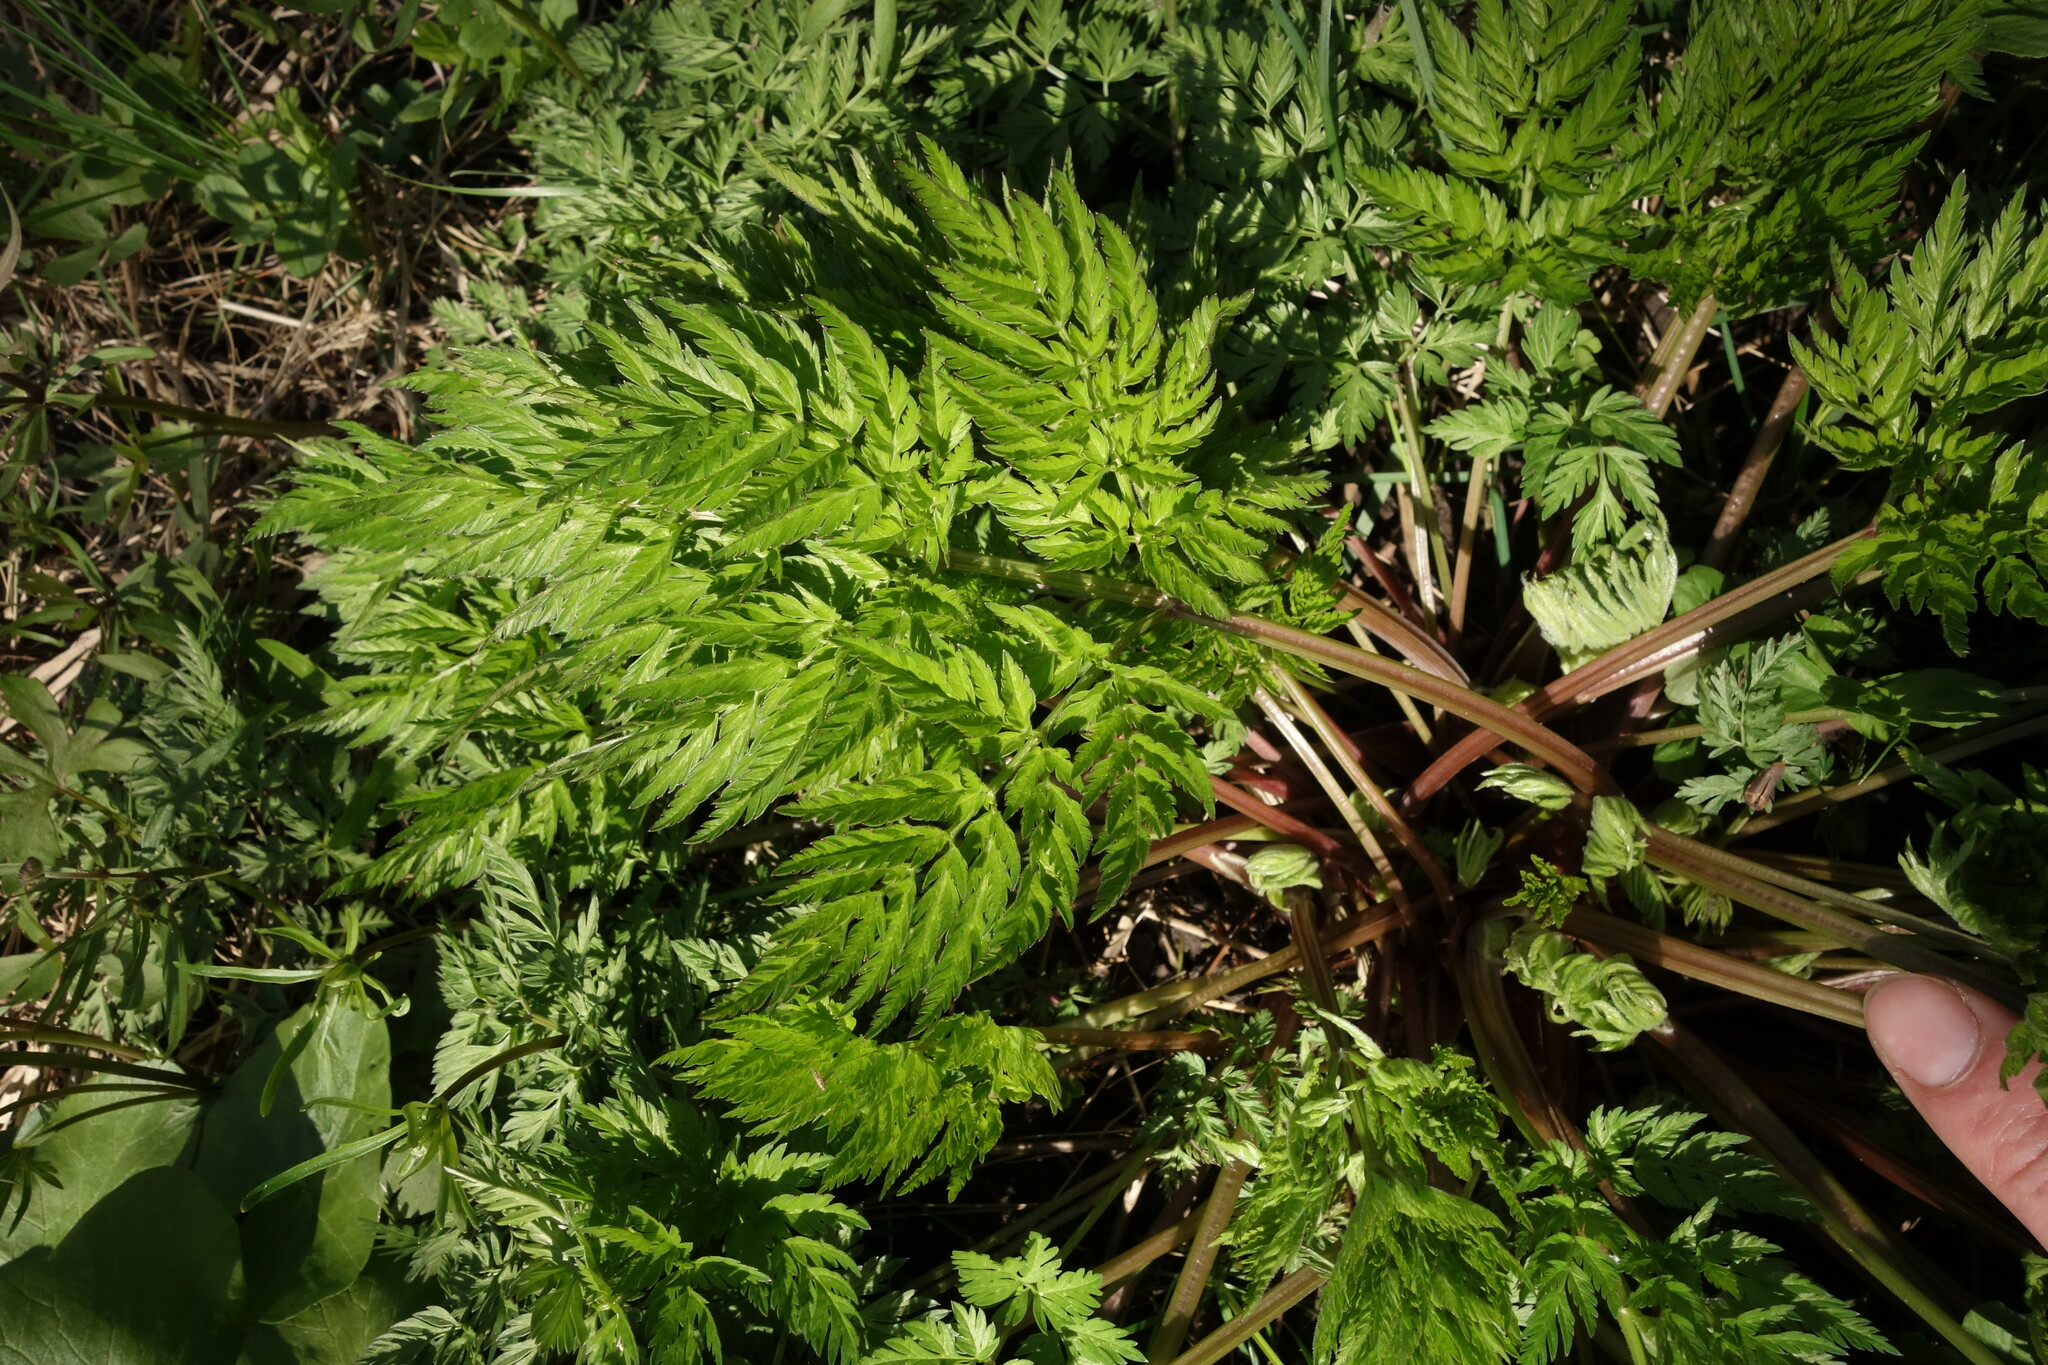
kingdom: Plantae
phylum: Tracheophyta
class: Magnoliopsida
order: Apiales
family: Apiaceae
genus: Anthriscus
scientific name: Anthriscus sylvestris
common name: Cow parsley
